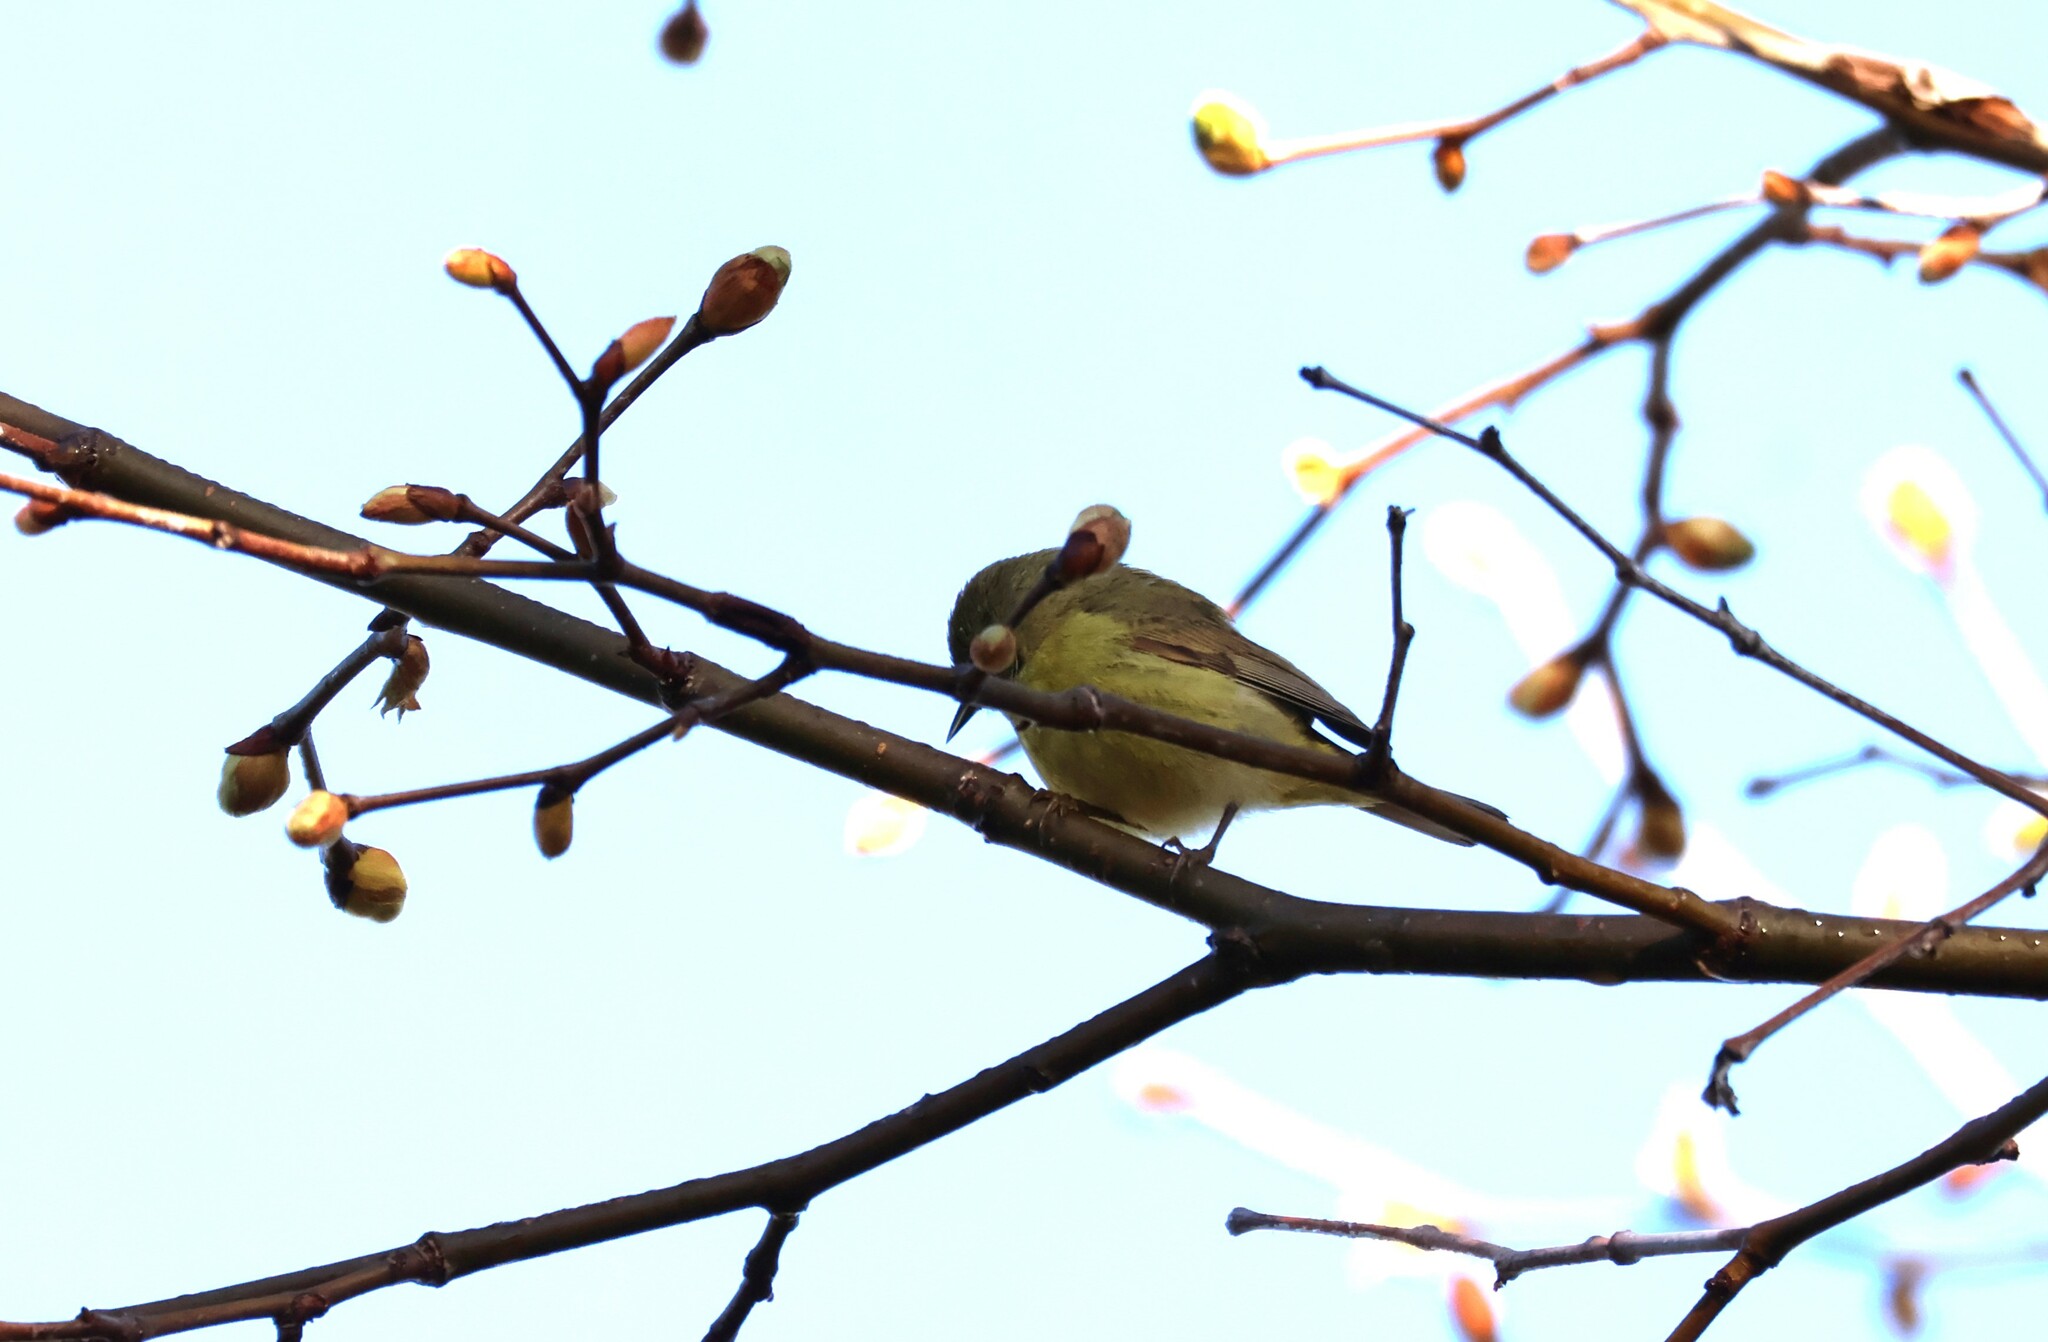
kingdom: Animalia
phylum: Chordata
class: Aves
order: Passeriformes
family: Parulidae
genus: Leiothlypis
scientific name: Leiothlypis celata
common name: Orange-crowned warbler
